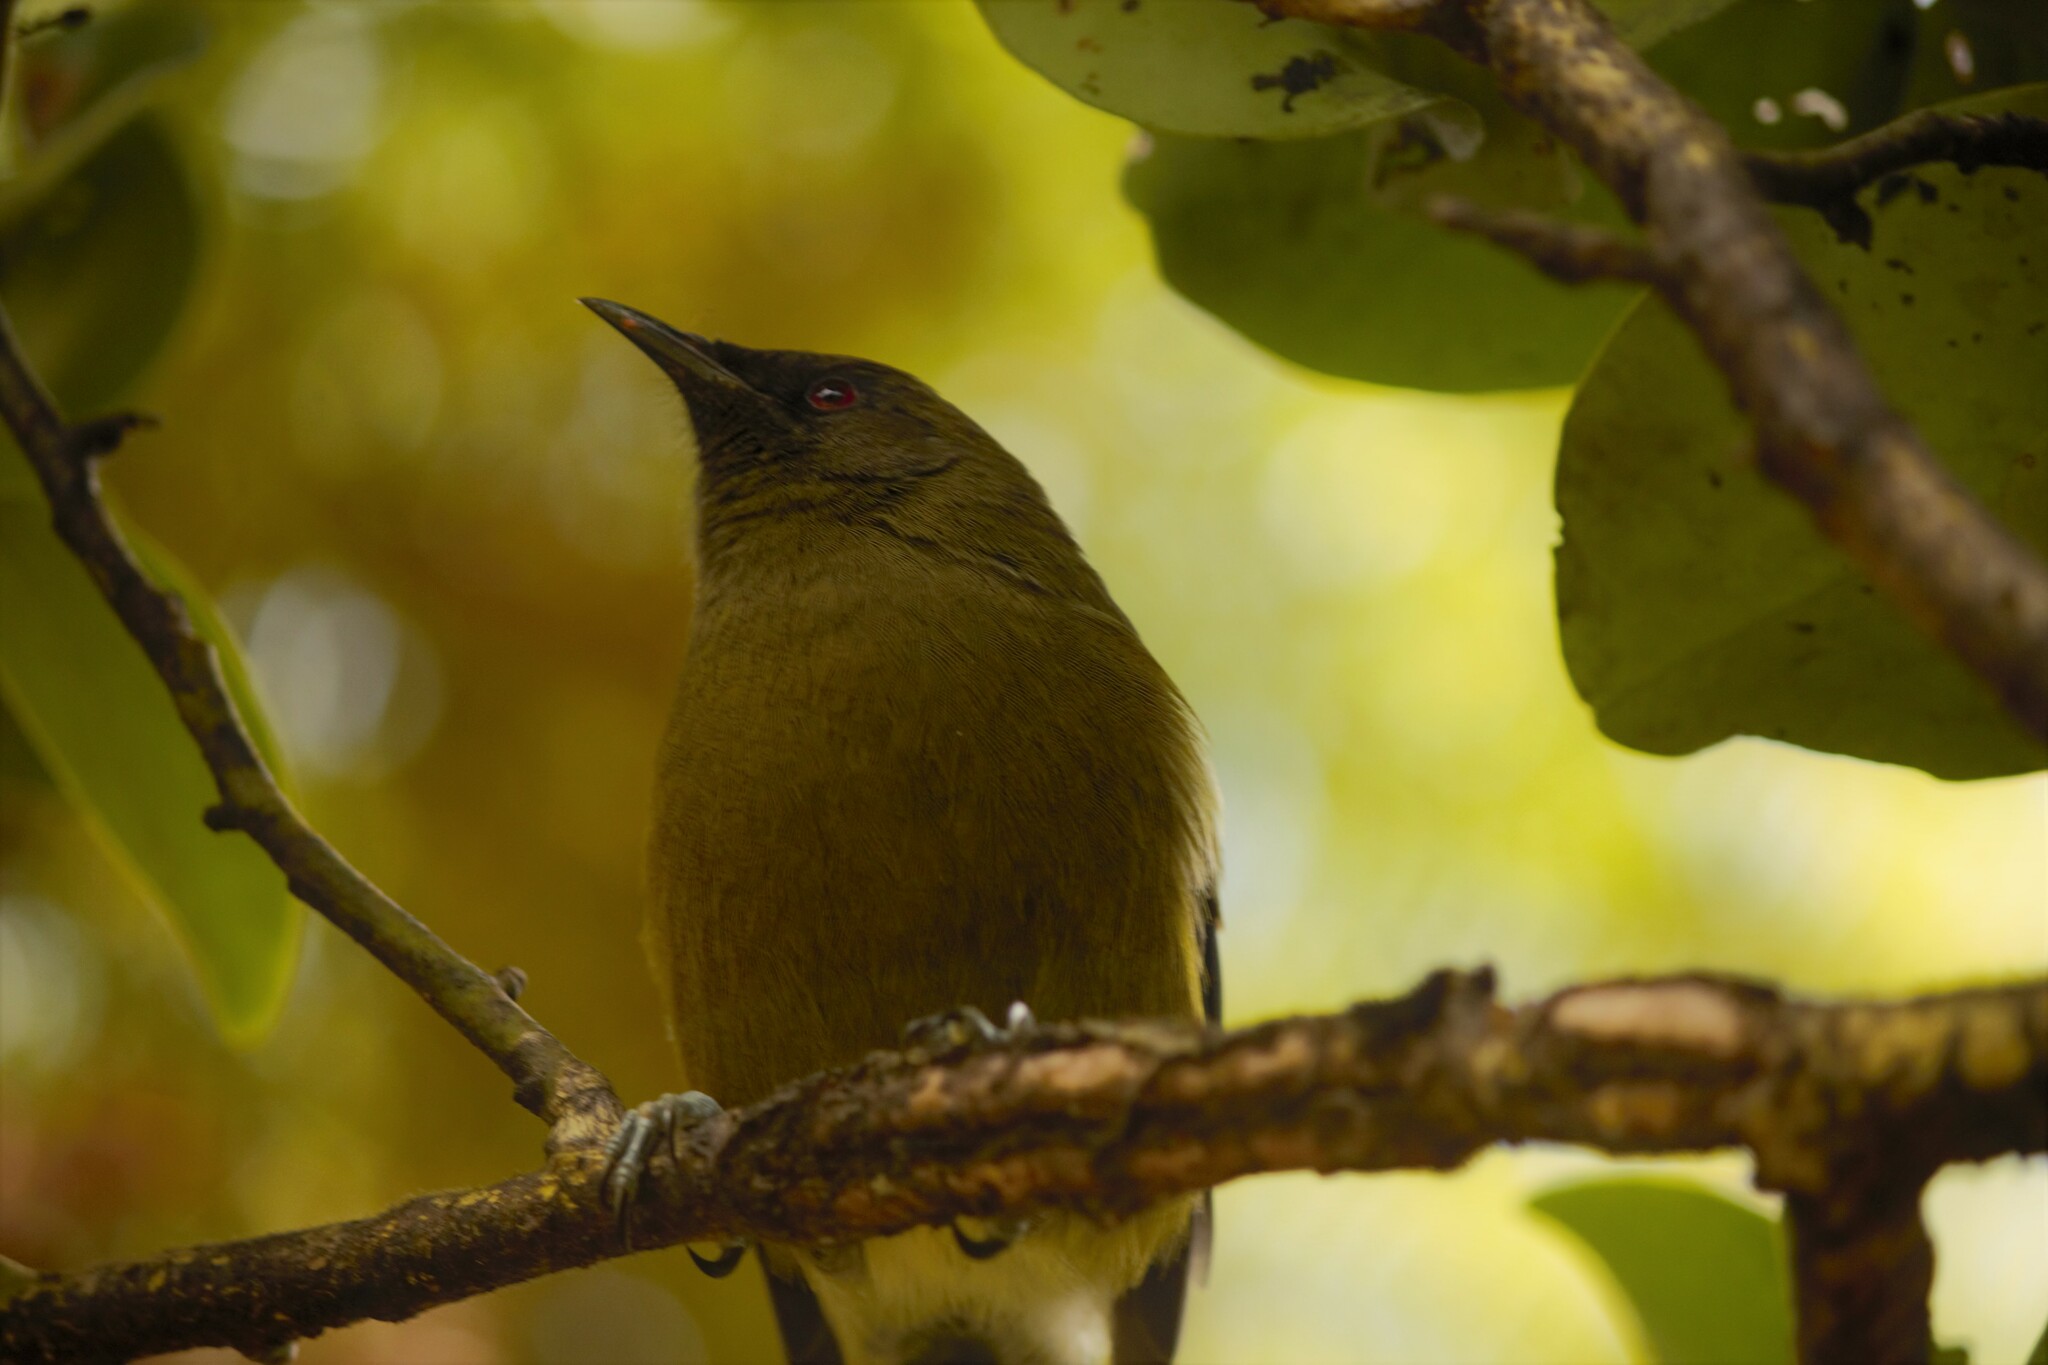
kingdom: Animalia
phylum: Chordata
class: Aves
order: Passeriformes
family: Meliphagidae
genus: Anthornis
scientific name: Anthornis melanura
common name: New zealand bellbird
